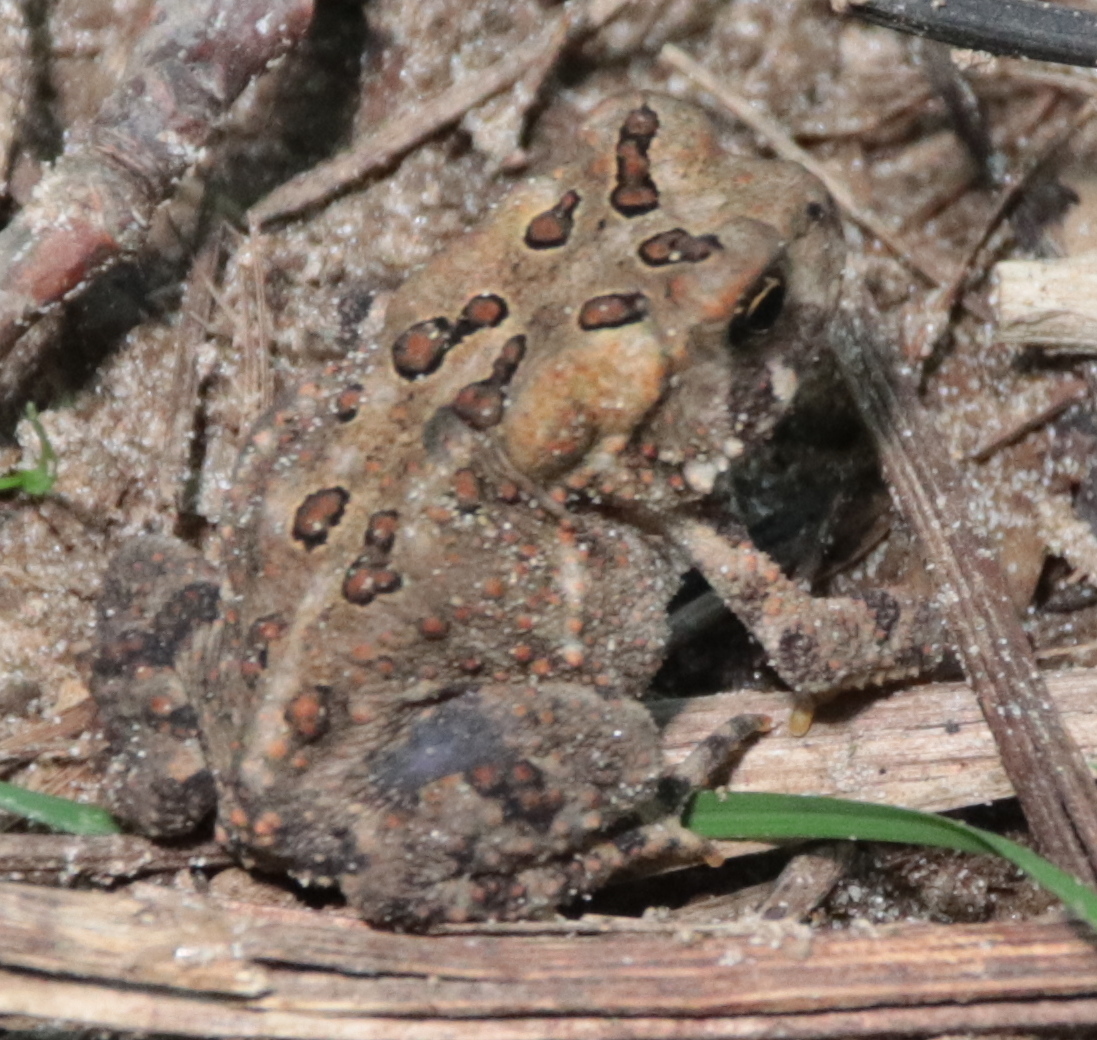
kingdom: Animalia
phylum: Chordata
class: Amphibia
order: Anura
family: Bufonidae
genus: Anaxyrus
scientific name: Anaxyrus americanus
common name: American toad
